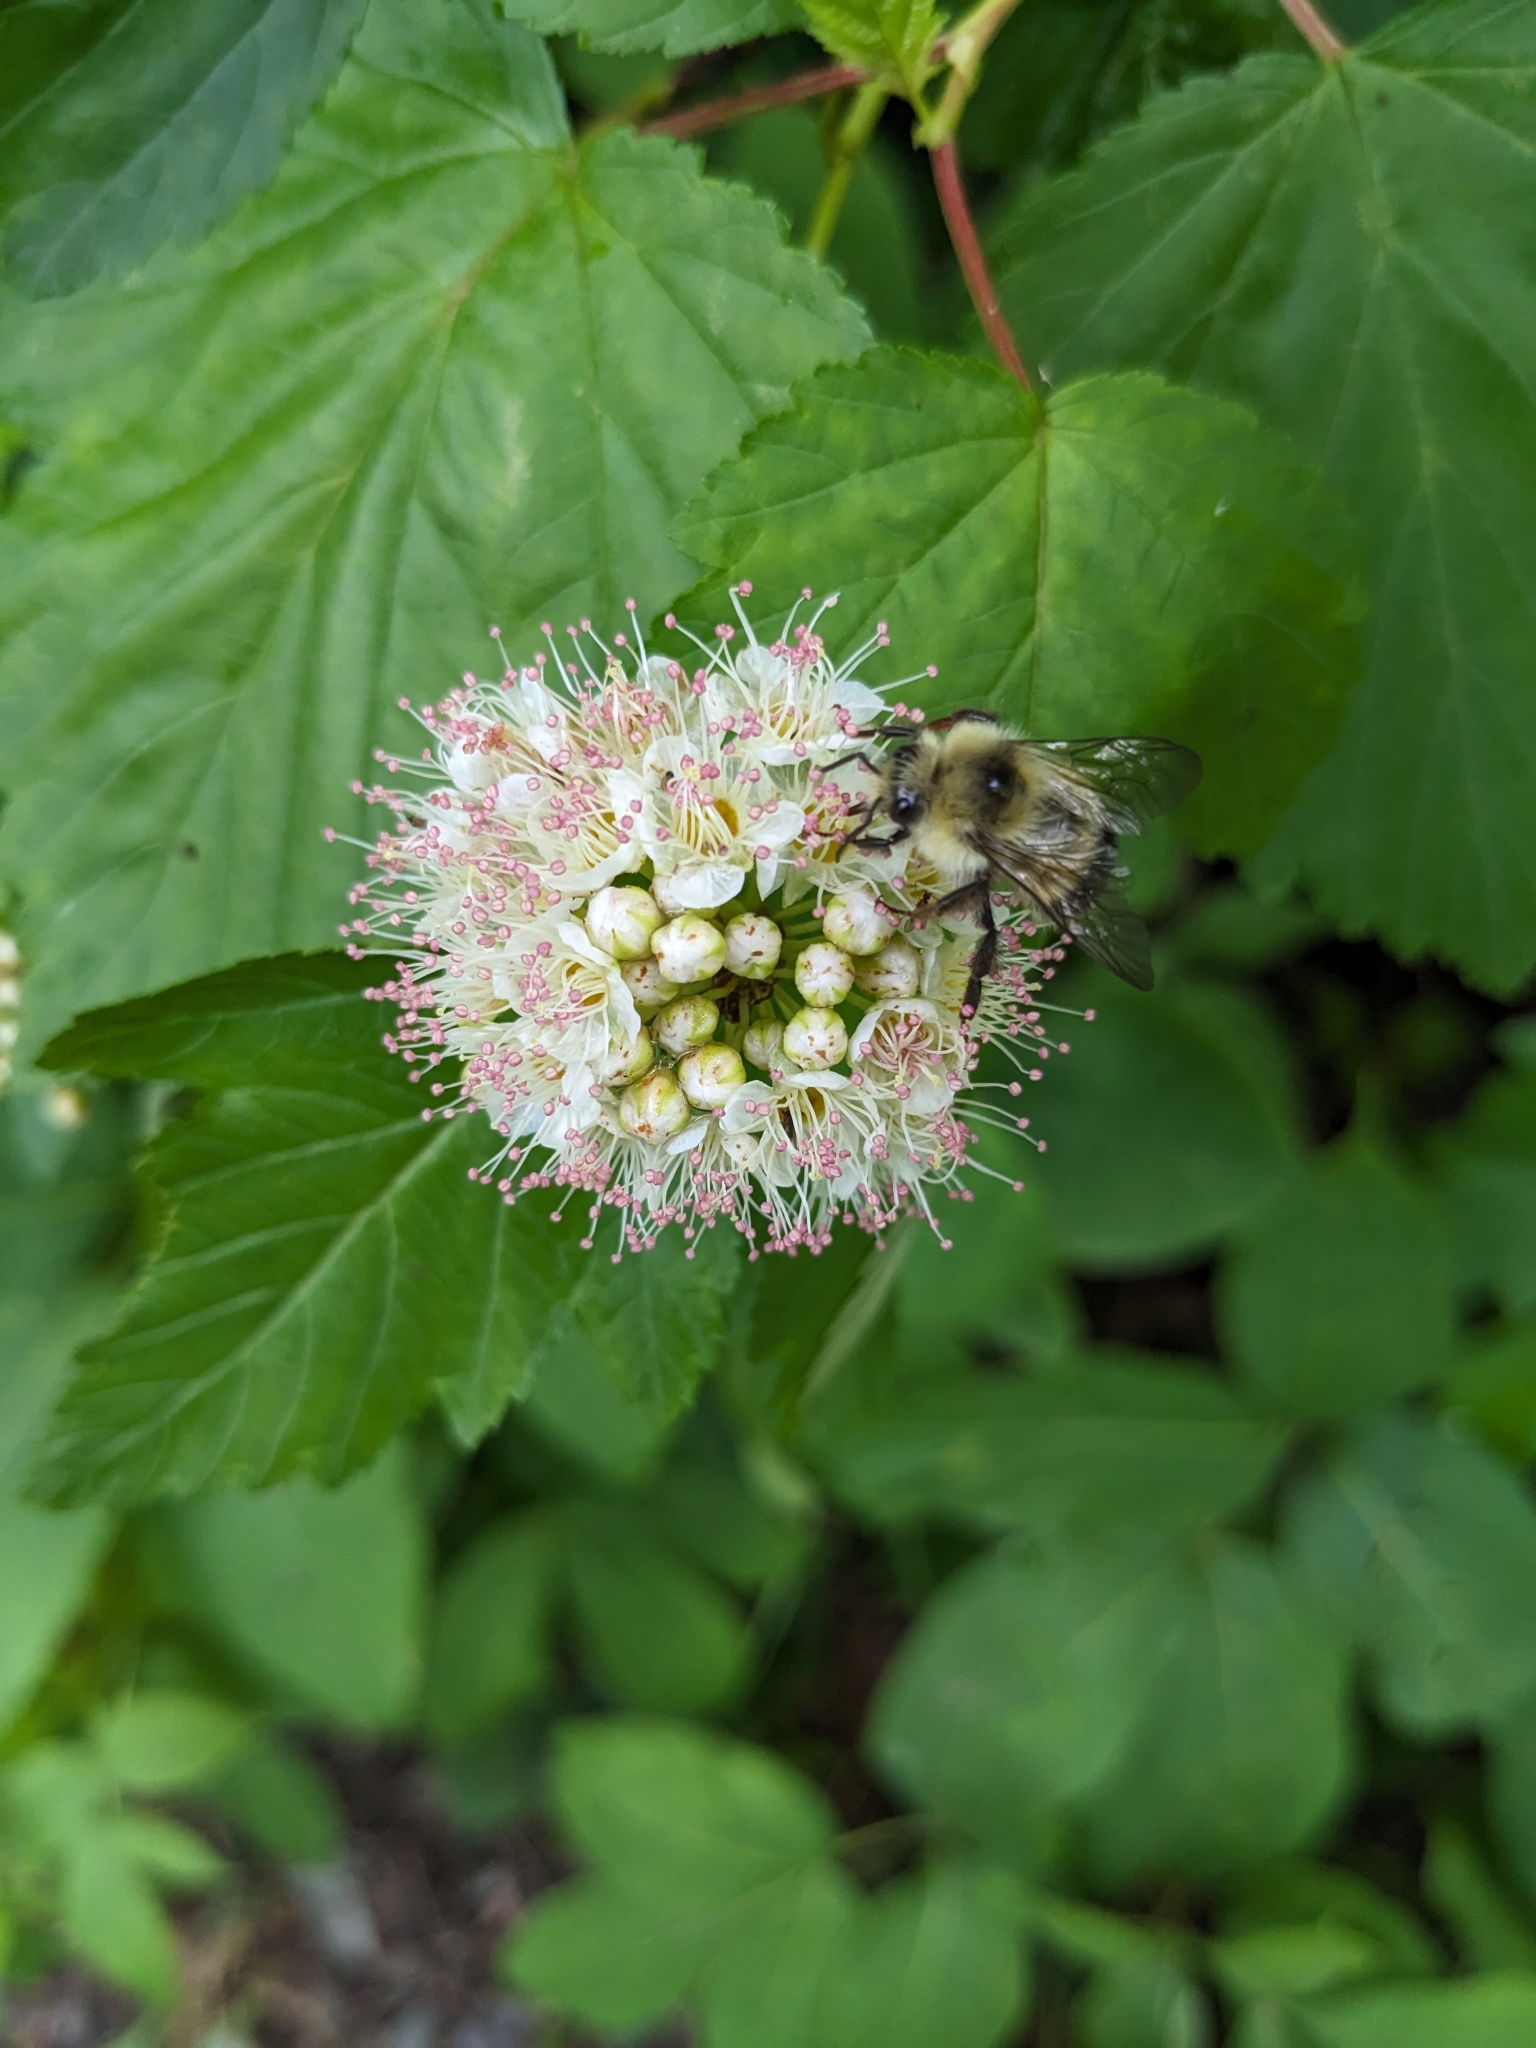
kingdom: Plantae
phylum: Tracheophyta
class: Magnoliopsida
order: Rosales
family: Rosaceae
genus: Physocarpus
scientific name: Physocarpus opulifolius
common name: Ninebark
